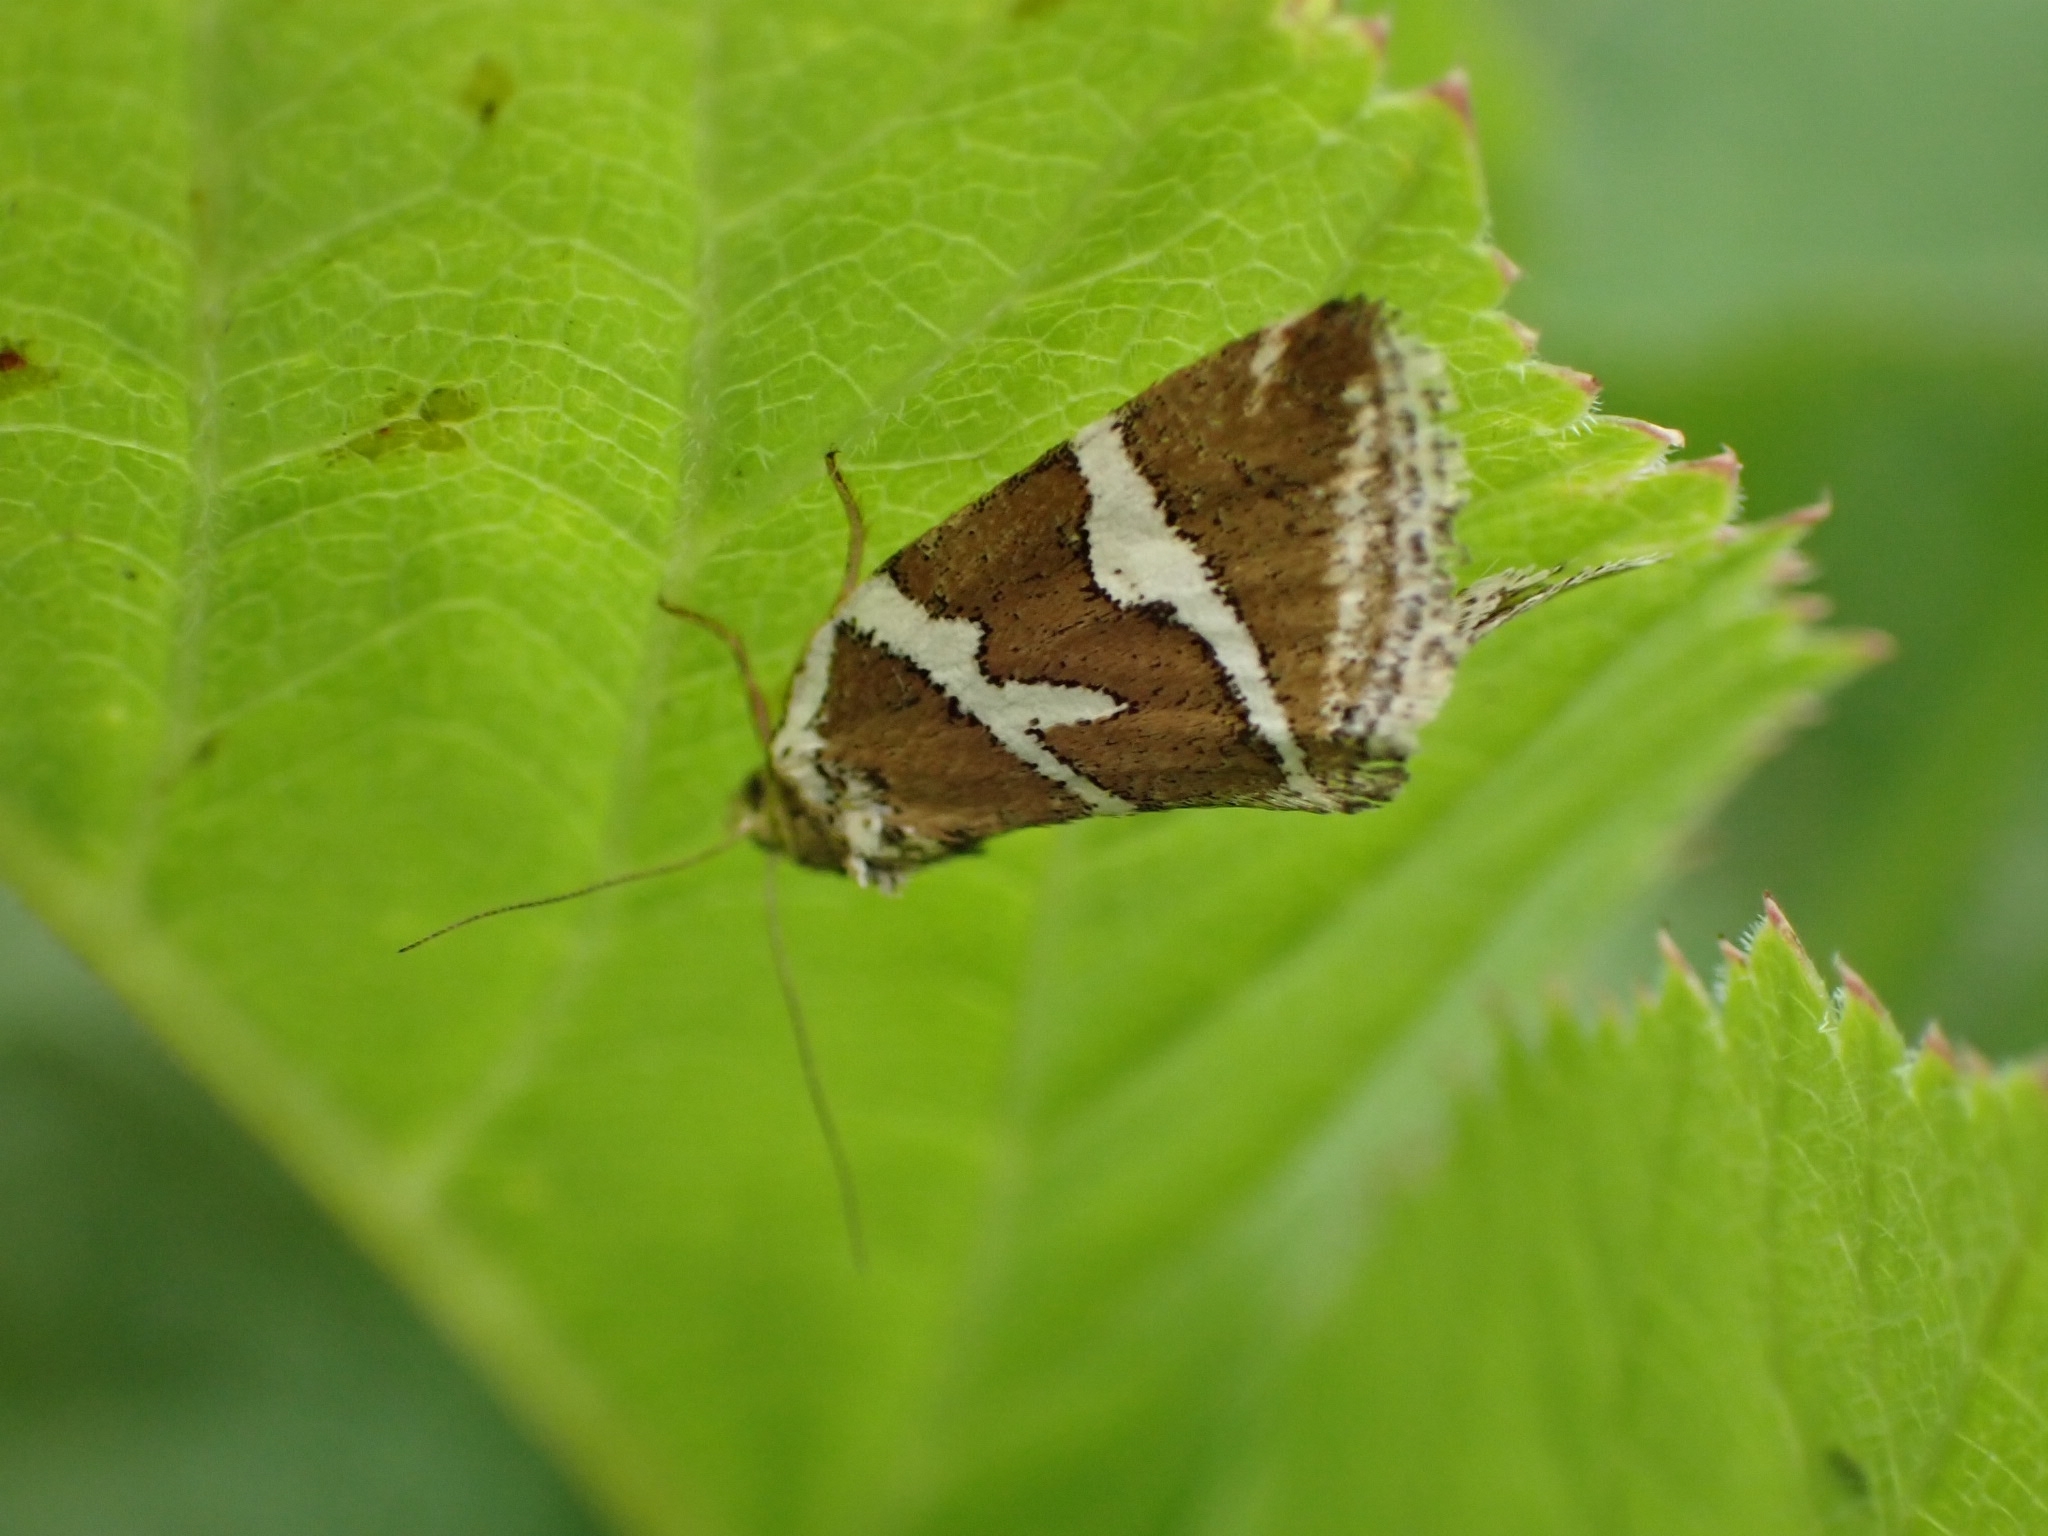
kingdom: Animalia
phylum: Arthropoda
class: Insecta
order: Lepidoptera
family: Noctuidae
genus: Deltote
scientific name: Deltote bankiana
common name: Silver barred
